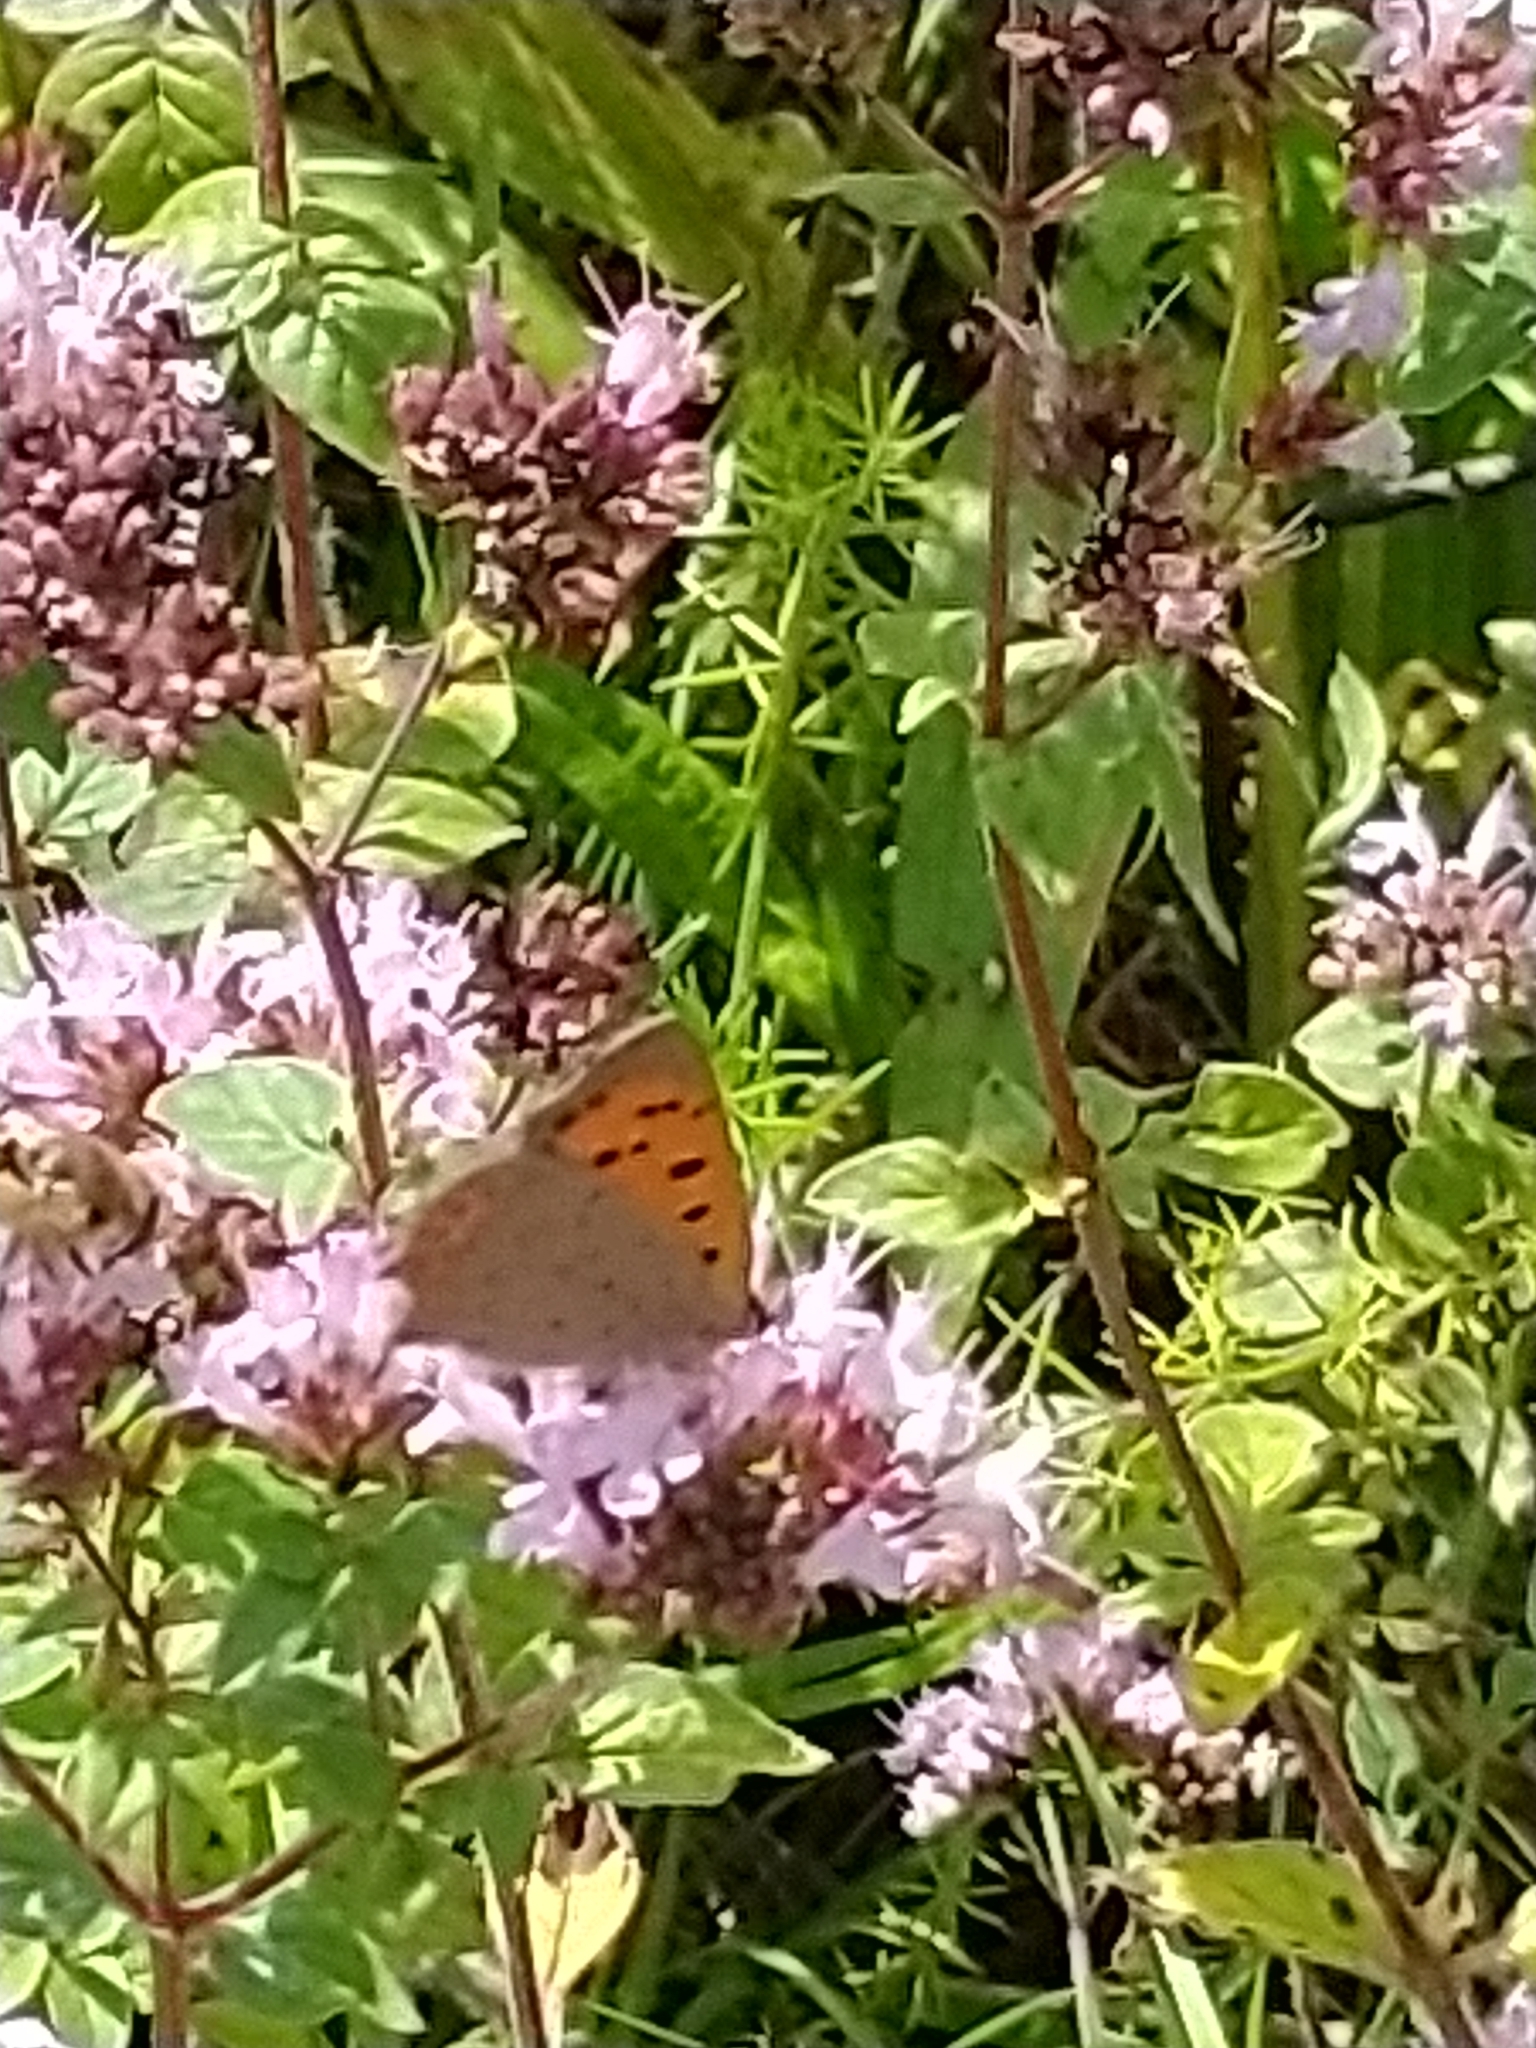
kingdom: Animalia
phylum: Arthropoda
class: Insecta
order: Lepidoptera
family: Lycaenidae
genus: Lycaena
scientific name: Lycaena phlaeas
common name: Small copper
